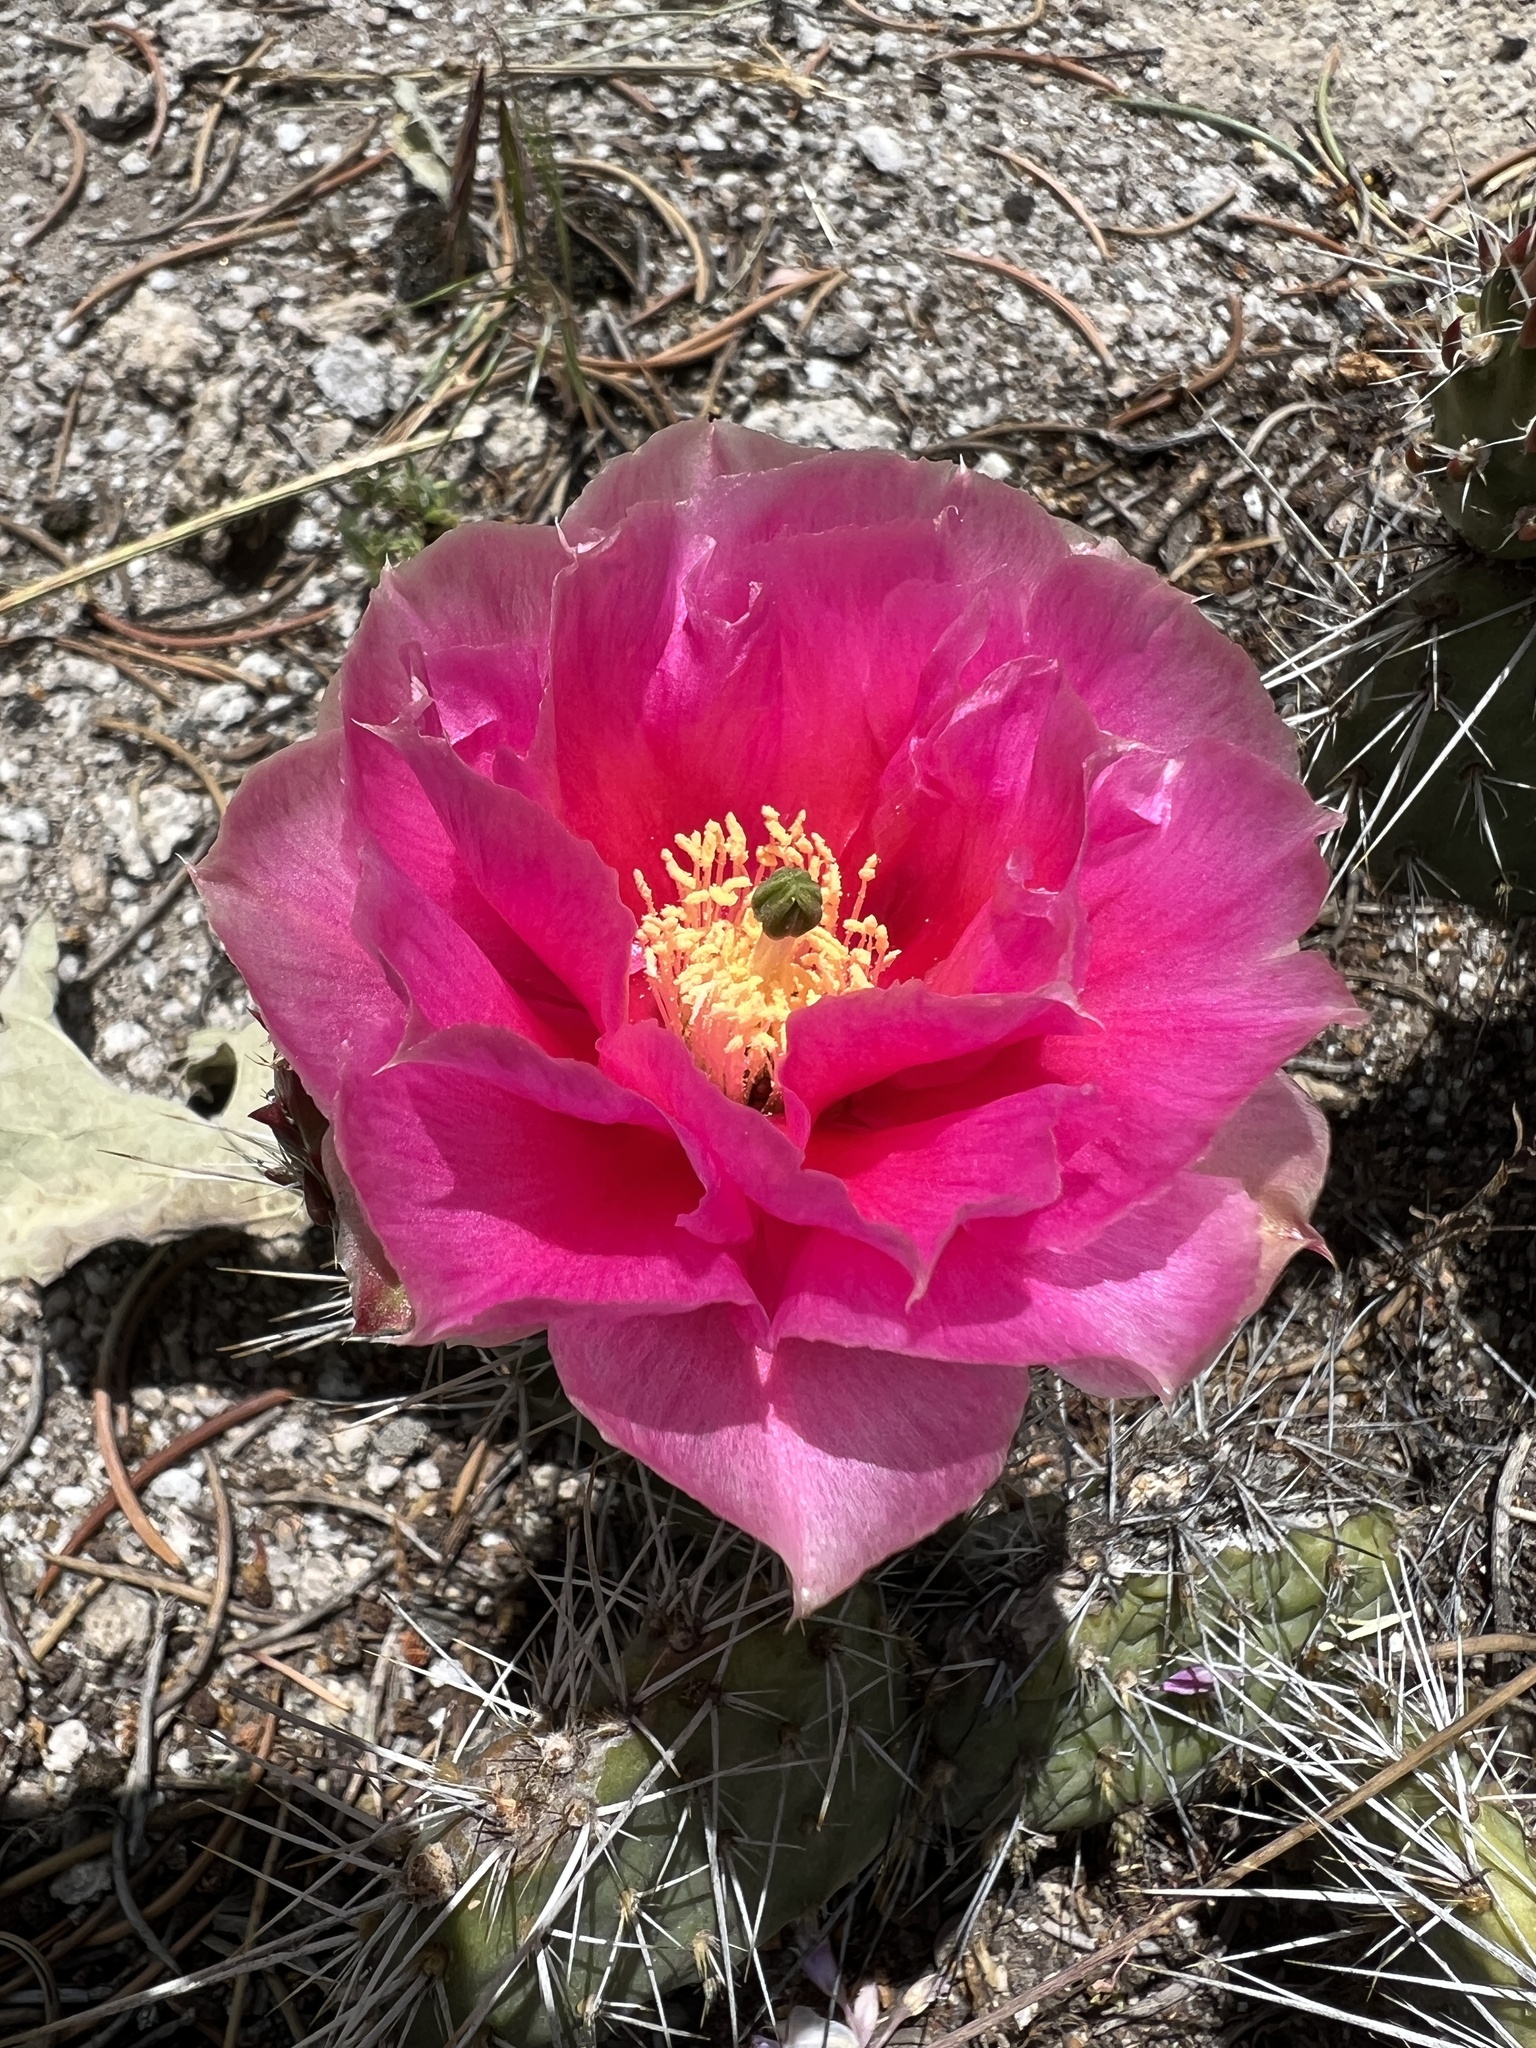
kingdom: Plantae
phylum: Tracheophyta
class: Magnoliopsida
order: Caryophyllales
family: Cactaceae
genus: Opuntia
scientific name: Opuntia polyacantha
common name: Plains prickly-pear
